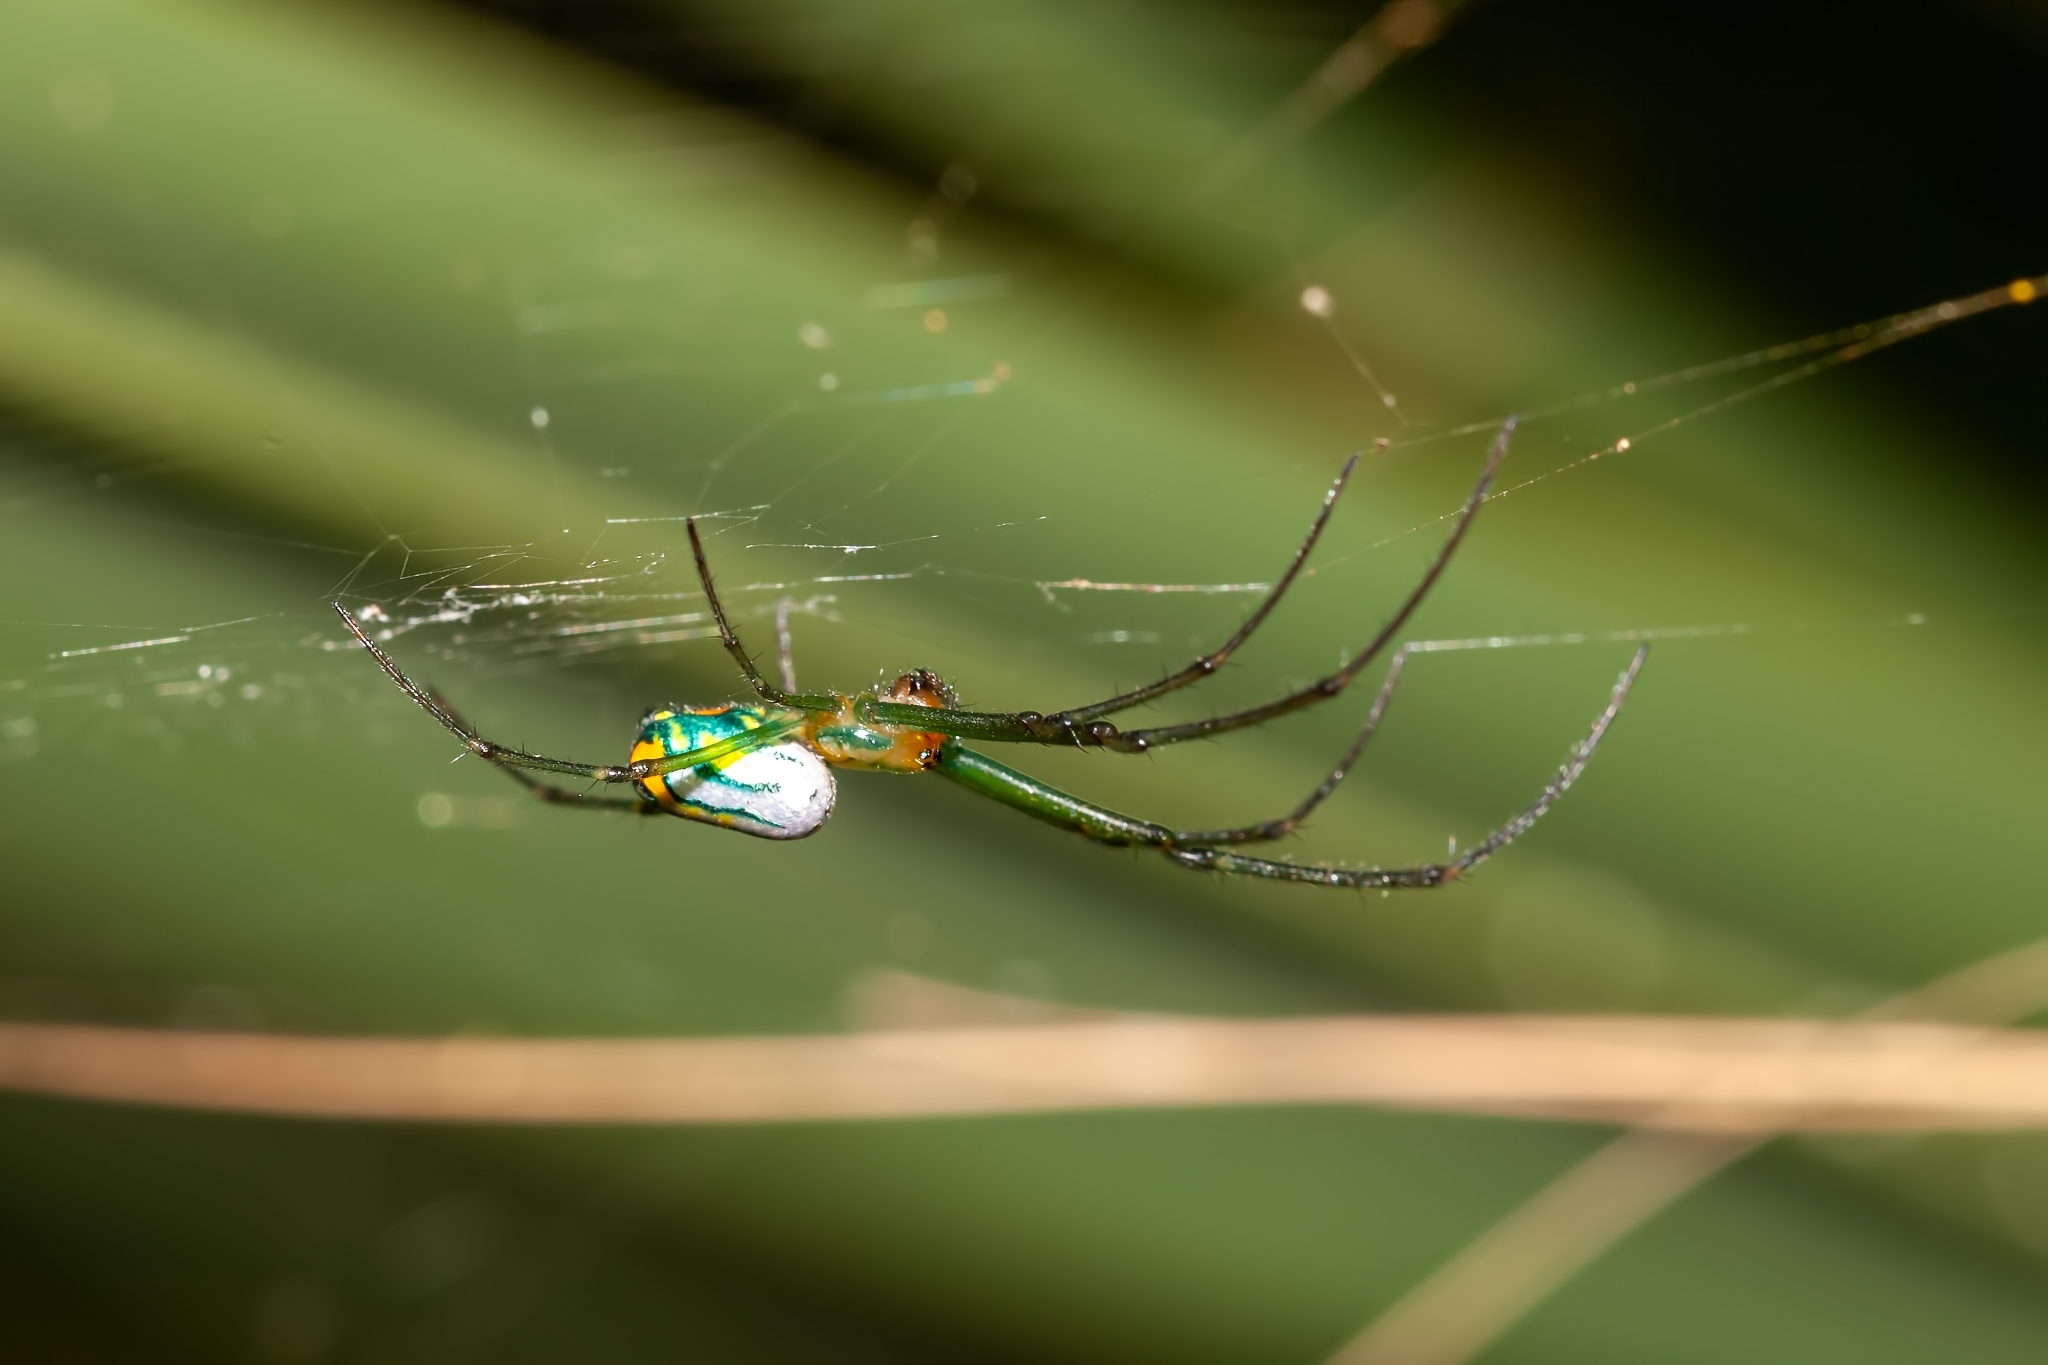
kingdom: Animalia
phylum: Arthropoda
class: Arachnida
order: Araneae
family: Tetragnathidae
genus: Leucauge
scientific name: Leucauge argyrobapta
